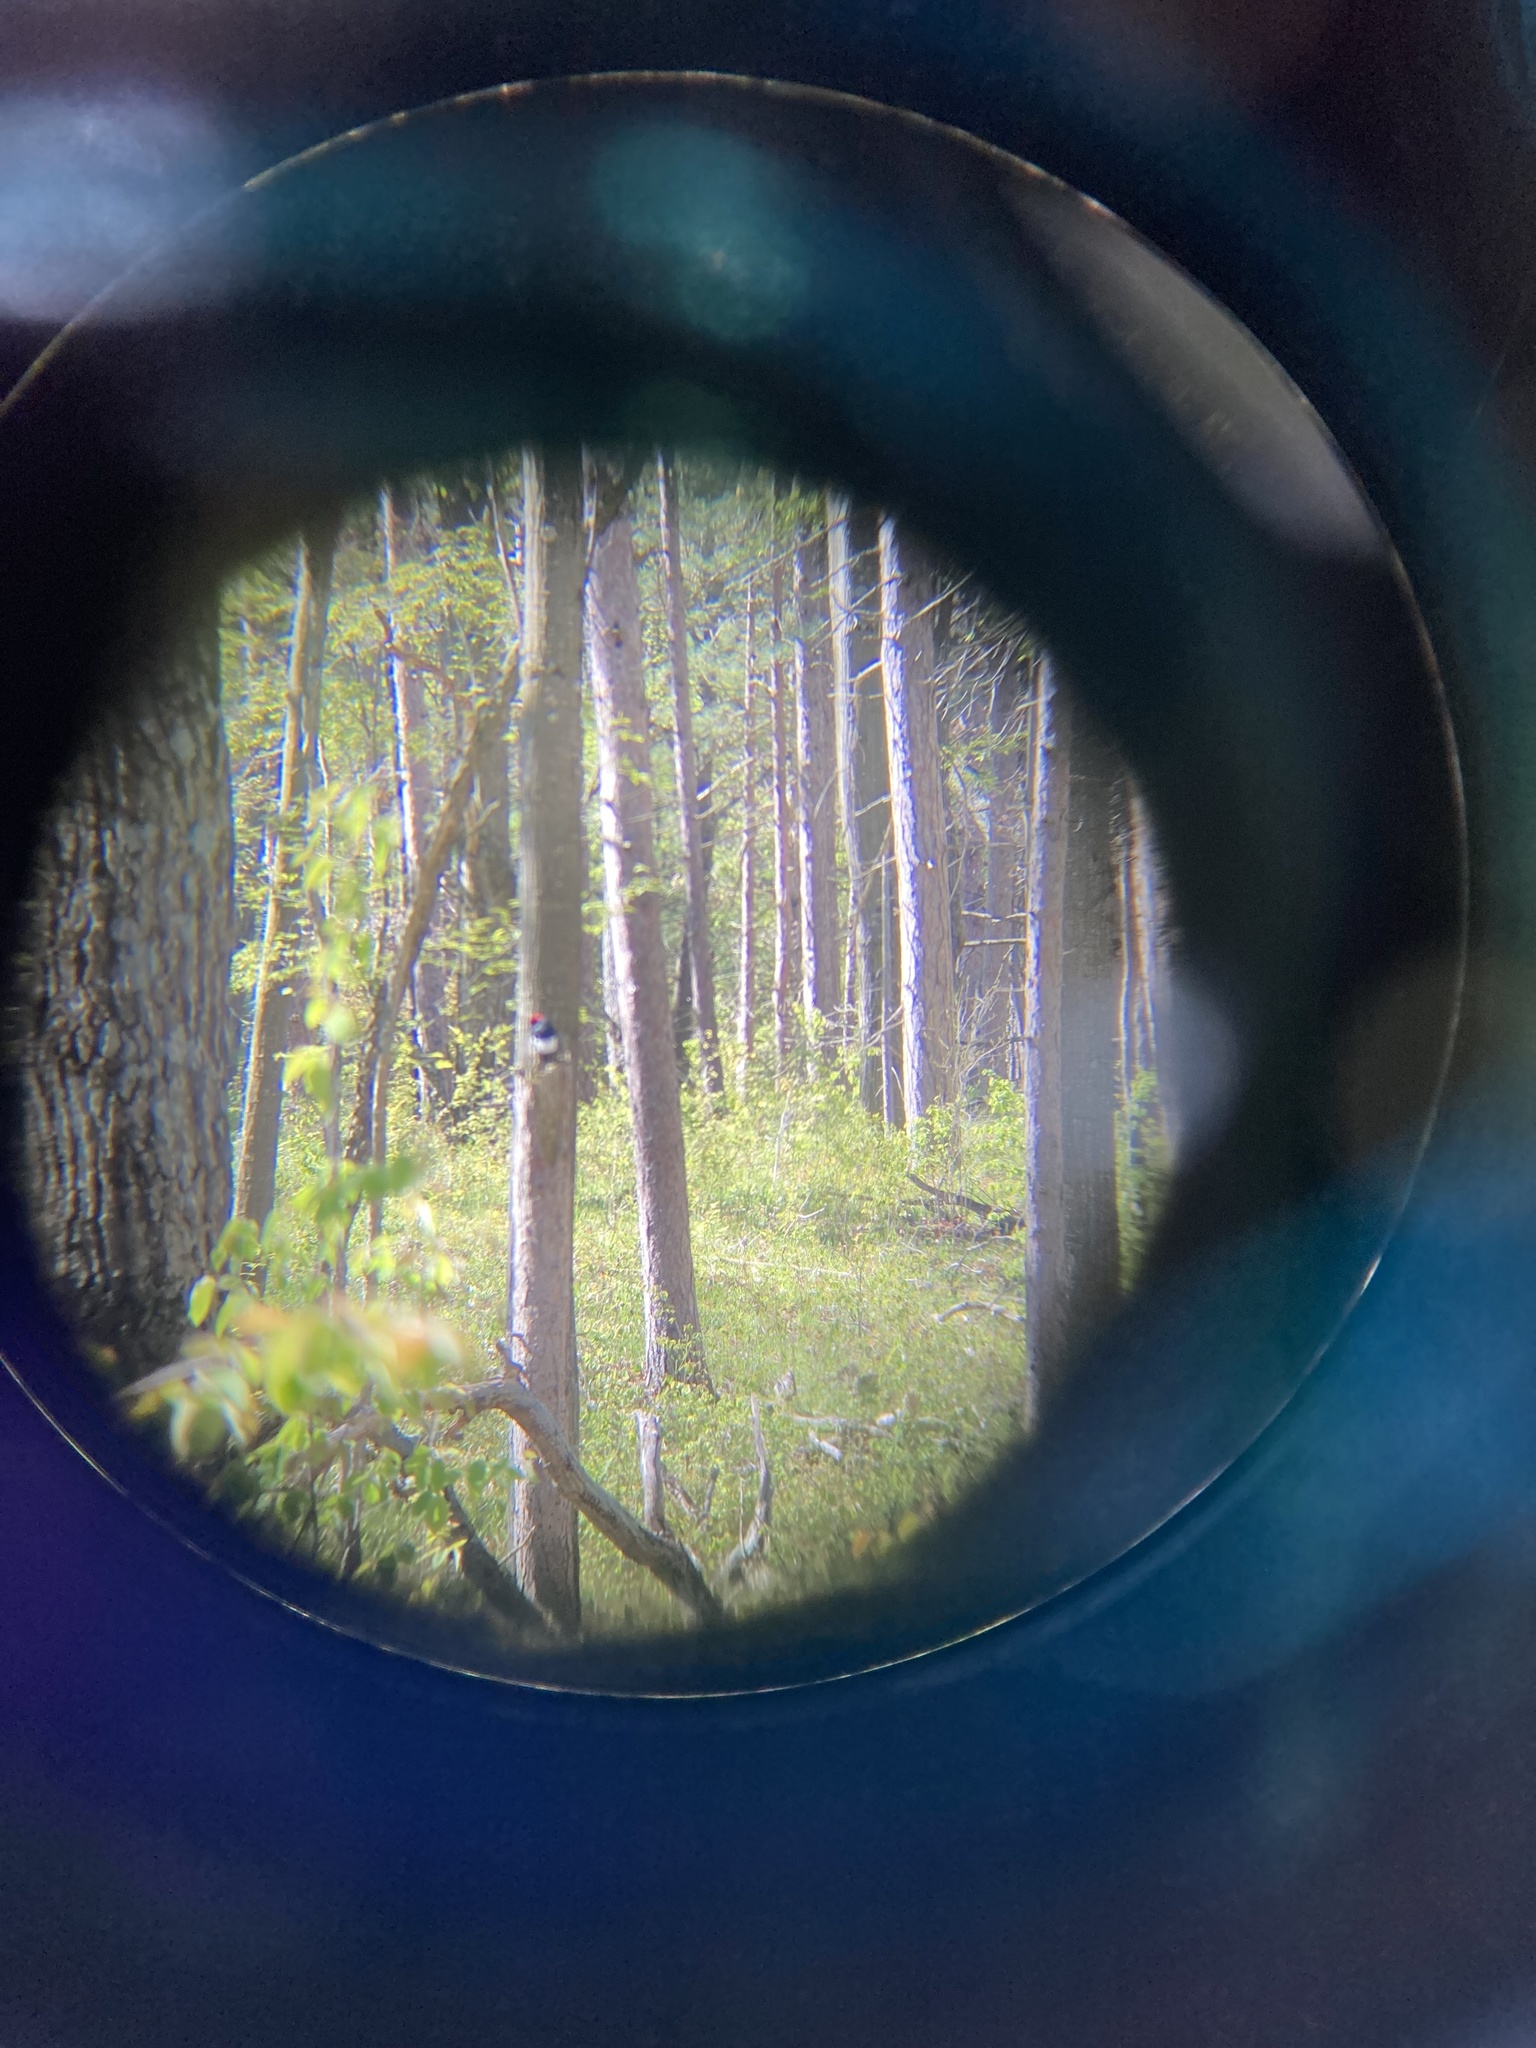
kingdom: Animalia
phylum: Chordata
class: Aves
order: Piciformes
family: Picidae
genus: Melanerpes
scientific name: Melanerpes erythrocephalus
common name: Red-headed woodpecker
